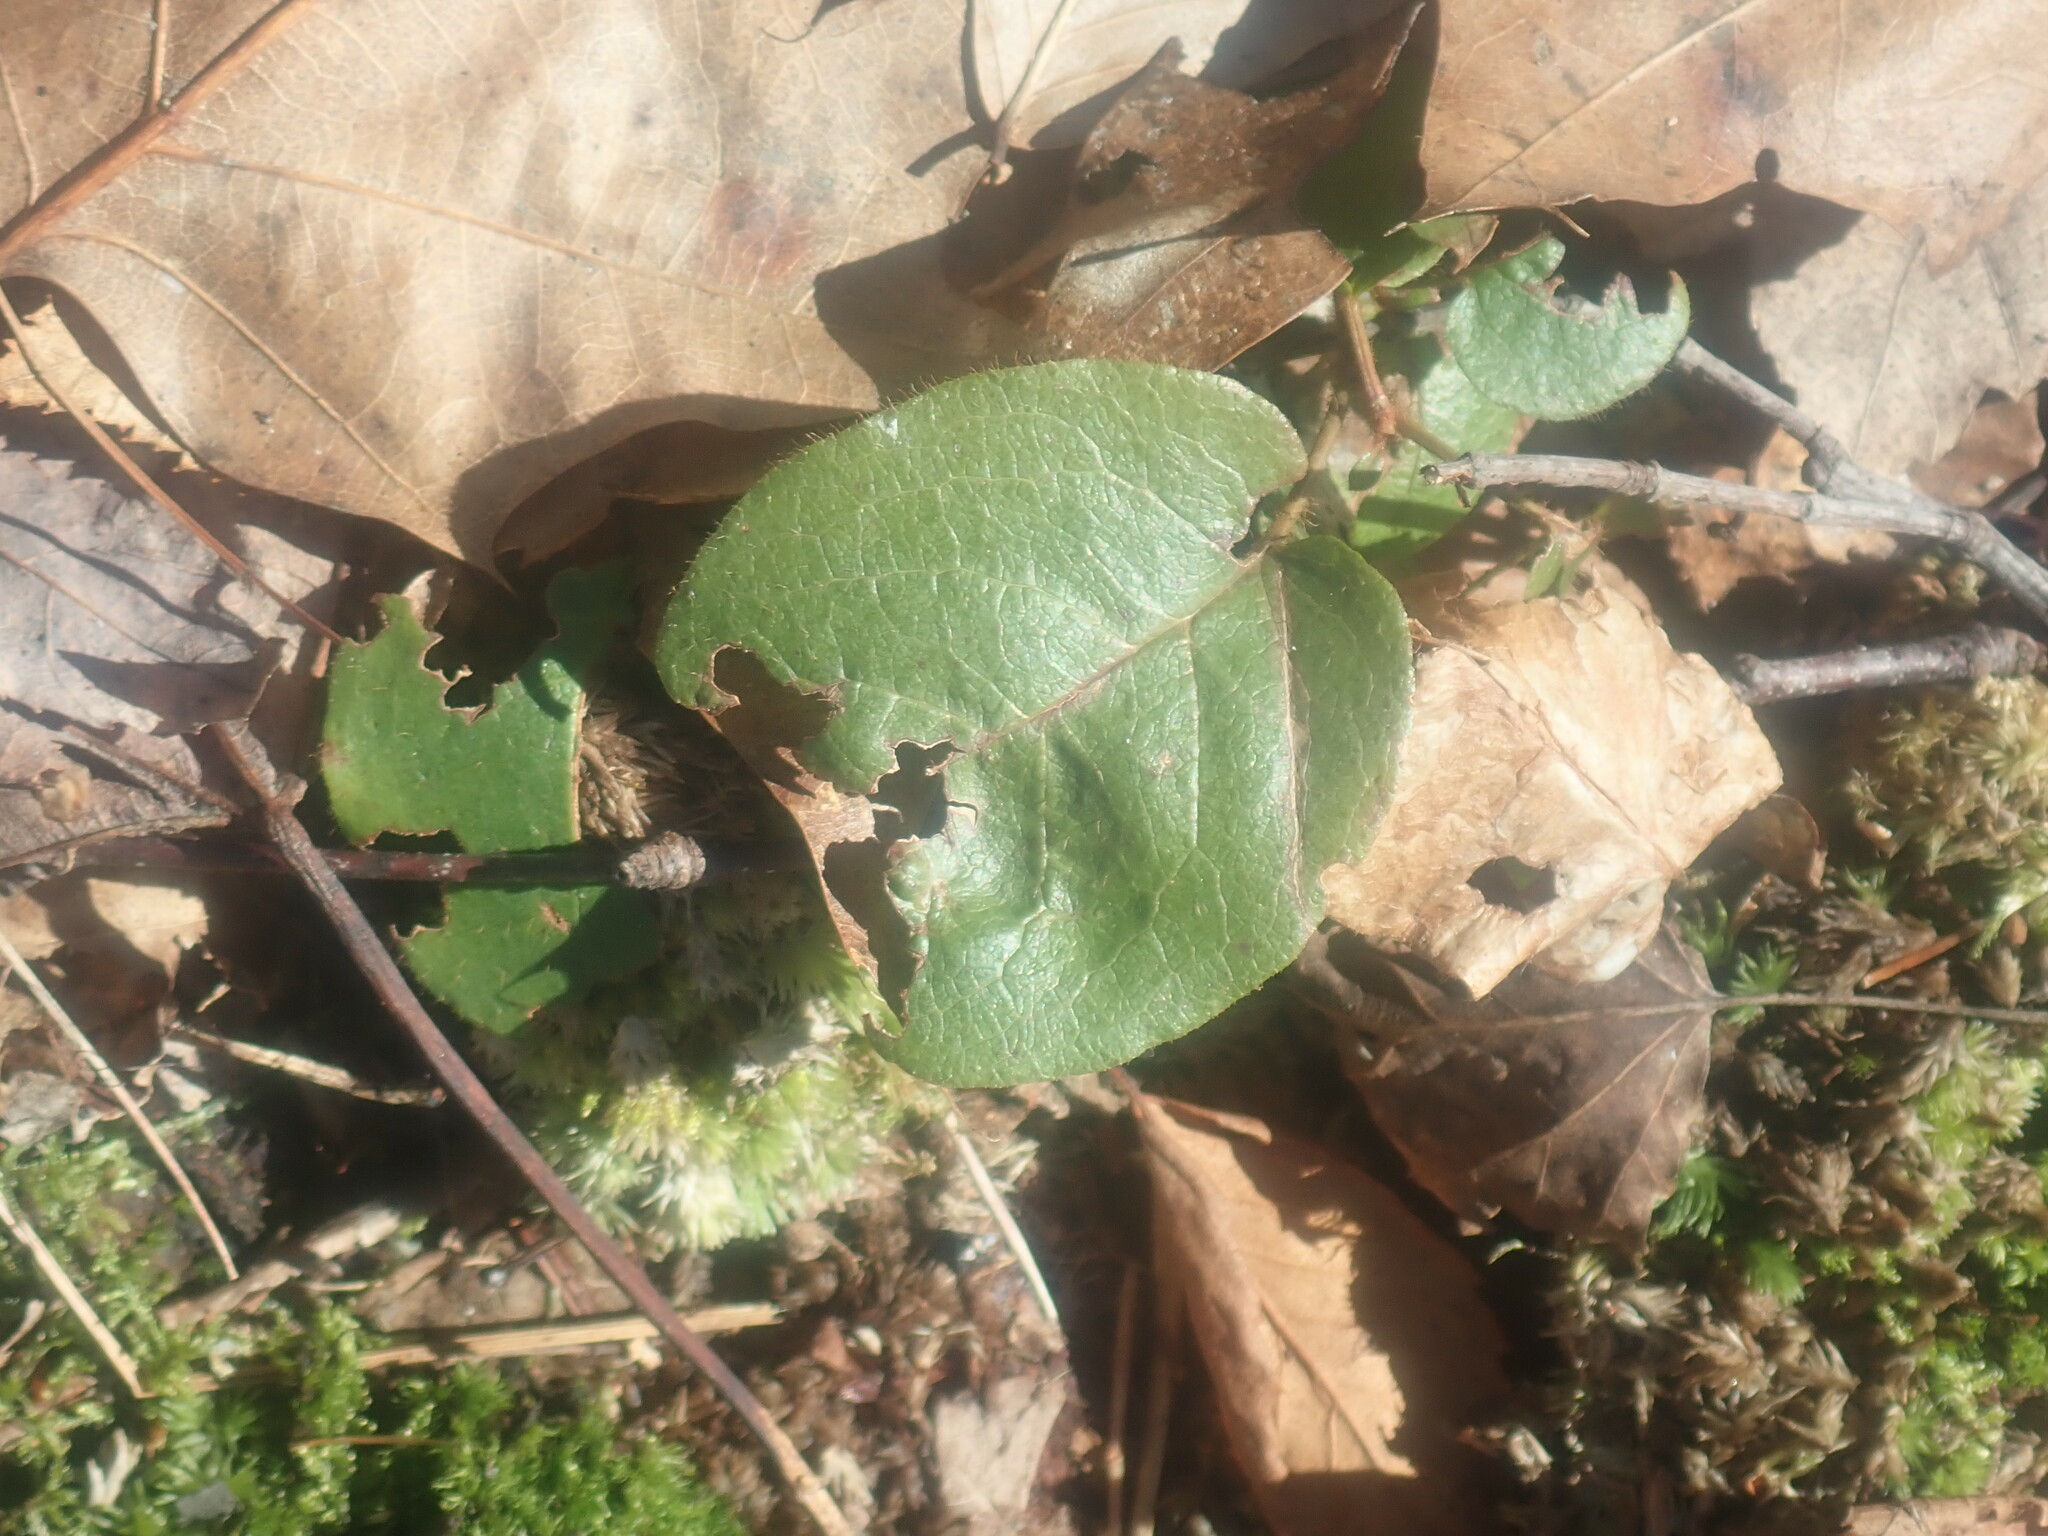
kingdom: Plantae
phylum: Tracheophyta
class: Magnoliopsida
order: Ericales
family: Ericaceae
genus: Epigaea
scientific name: Epigaea repens
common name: Gravelroot
